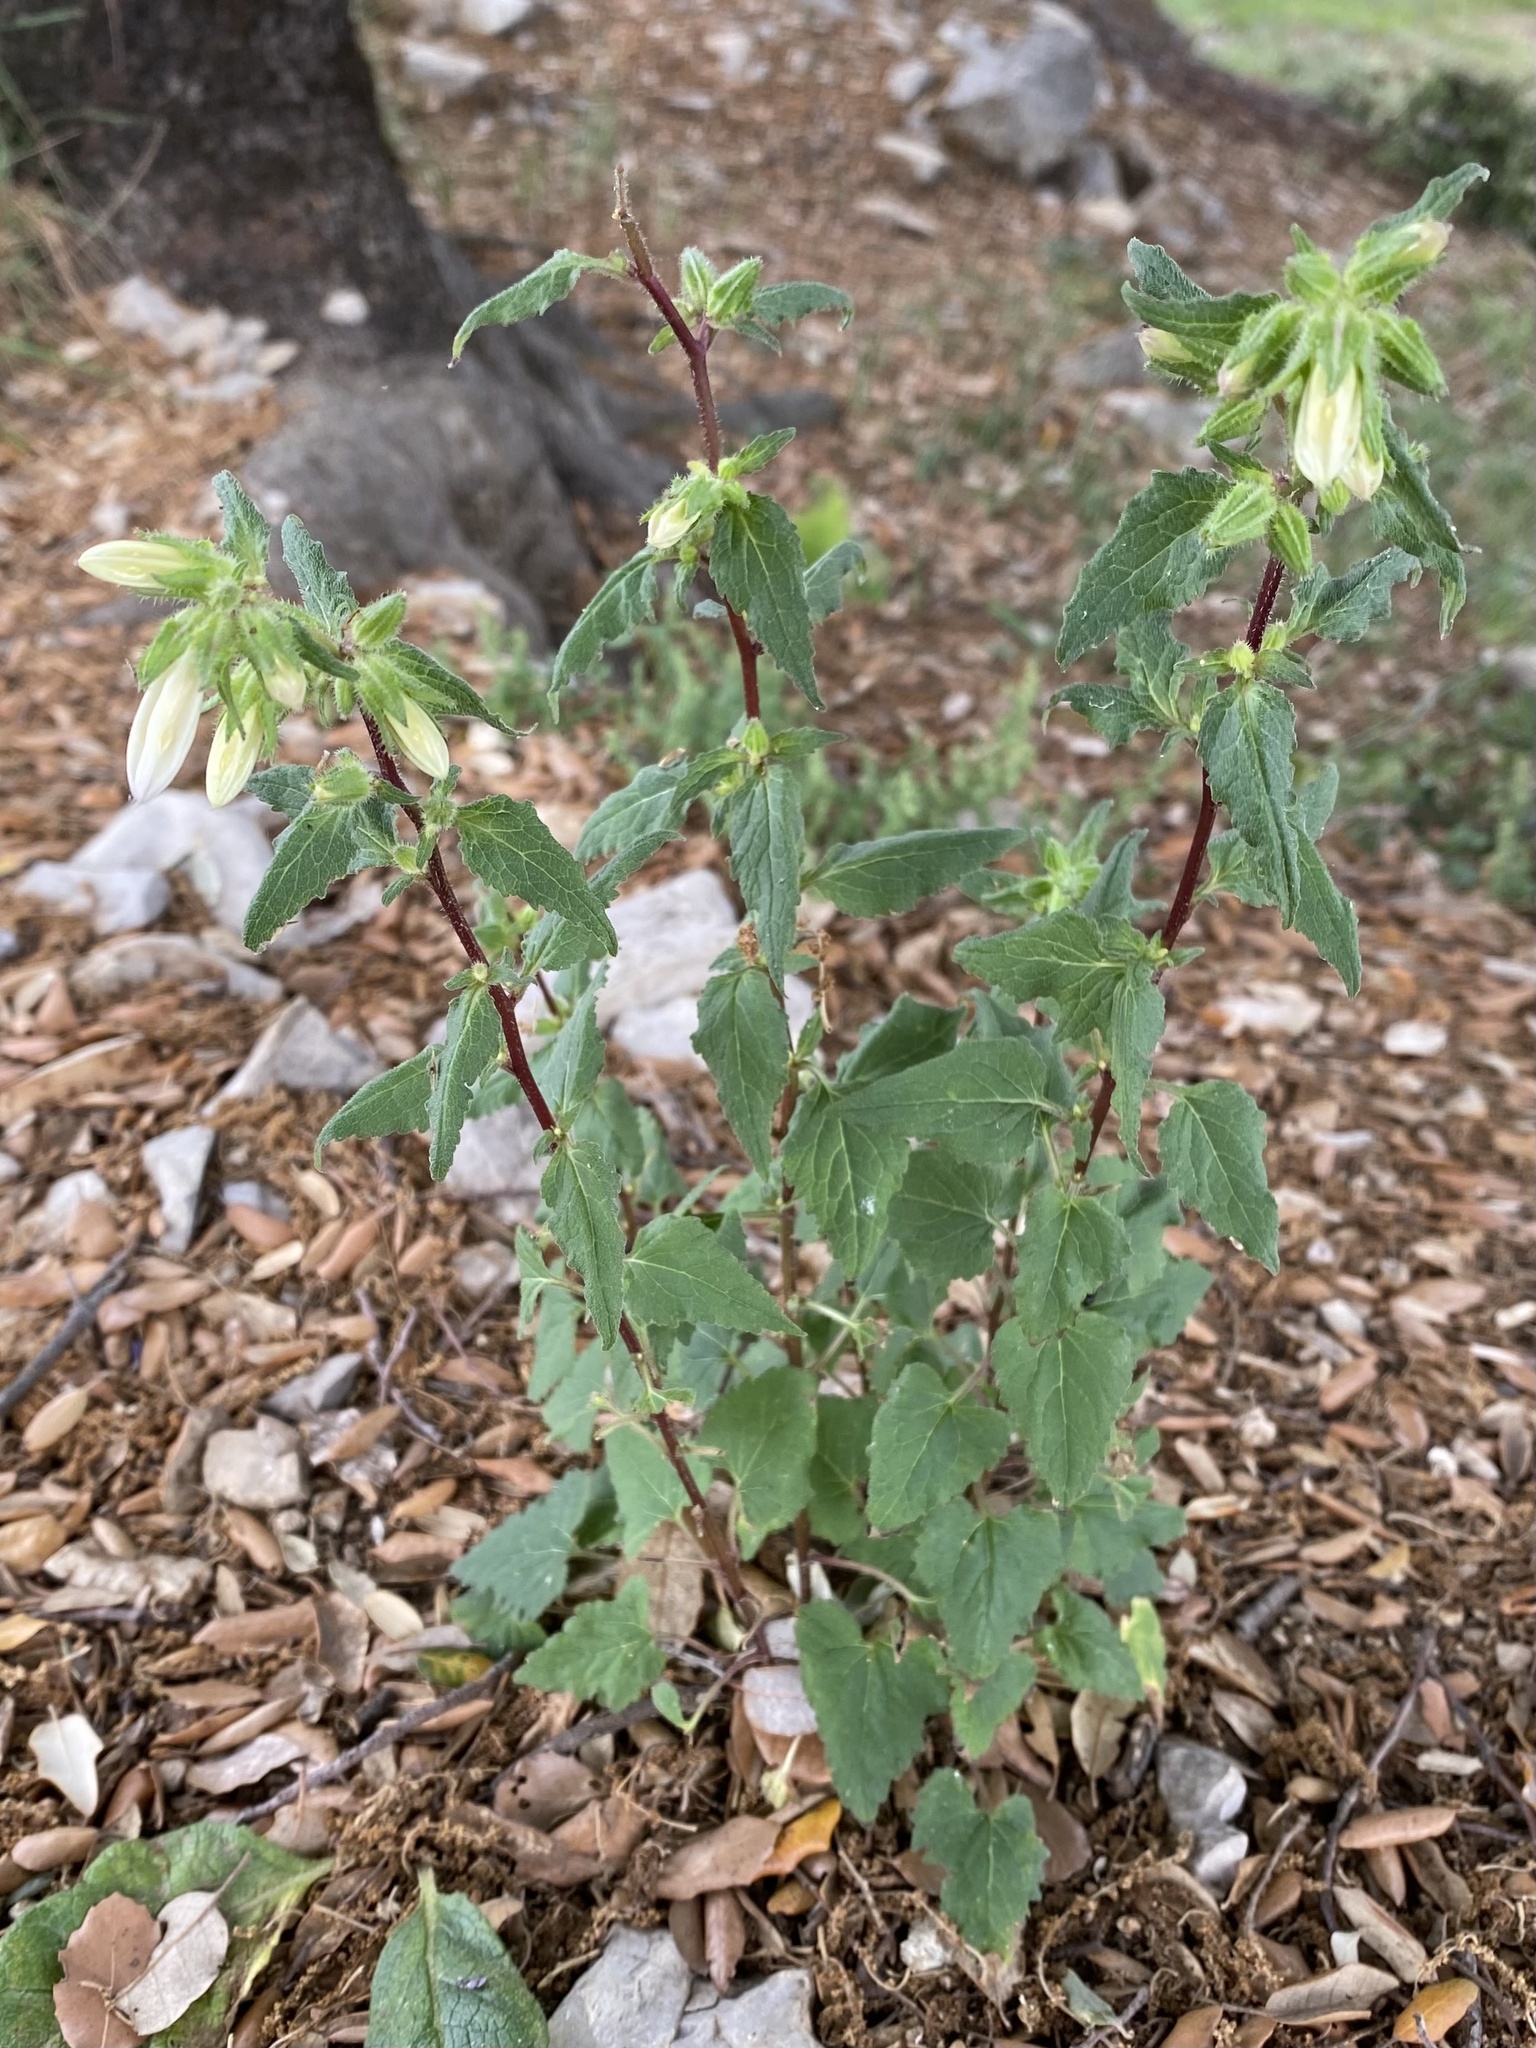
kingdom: Plantae
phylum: Tracheophyta
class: Magnoliopsida
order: Asterales
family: Campanulaceae
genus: Campanula
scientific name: Campanula trachelium
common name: Nettle-leaved bellflower
